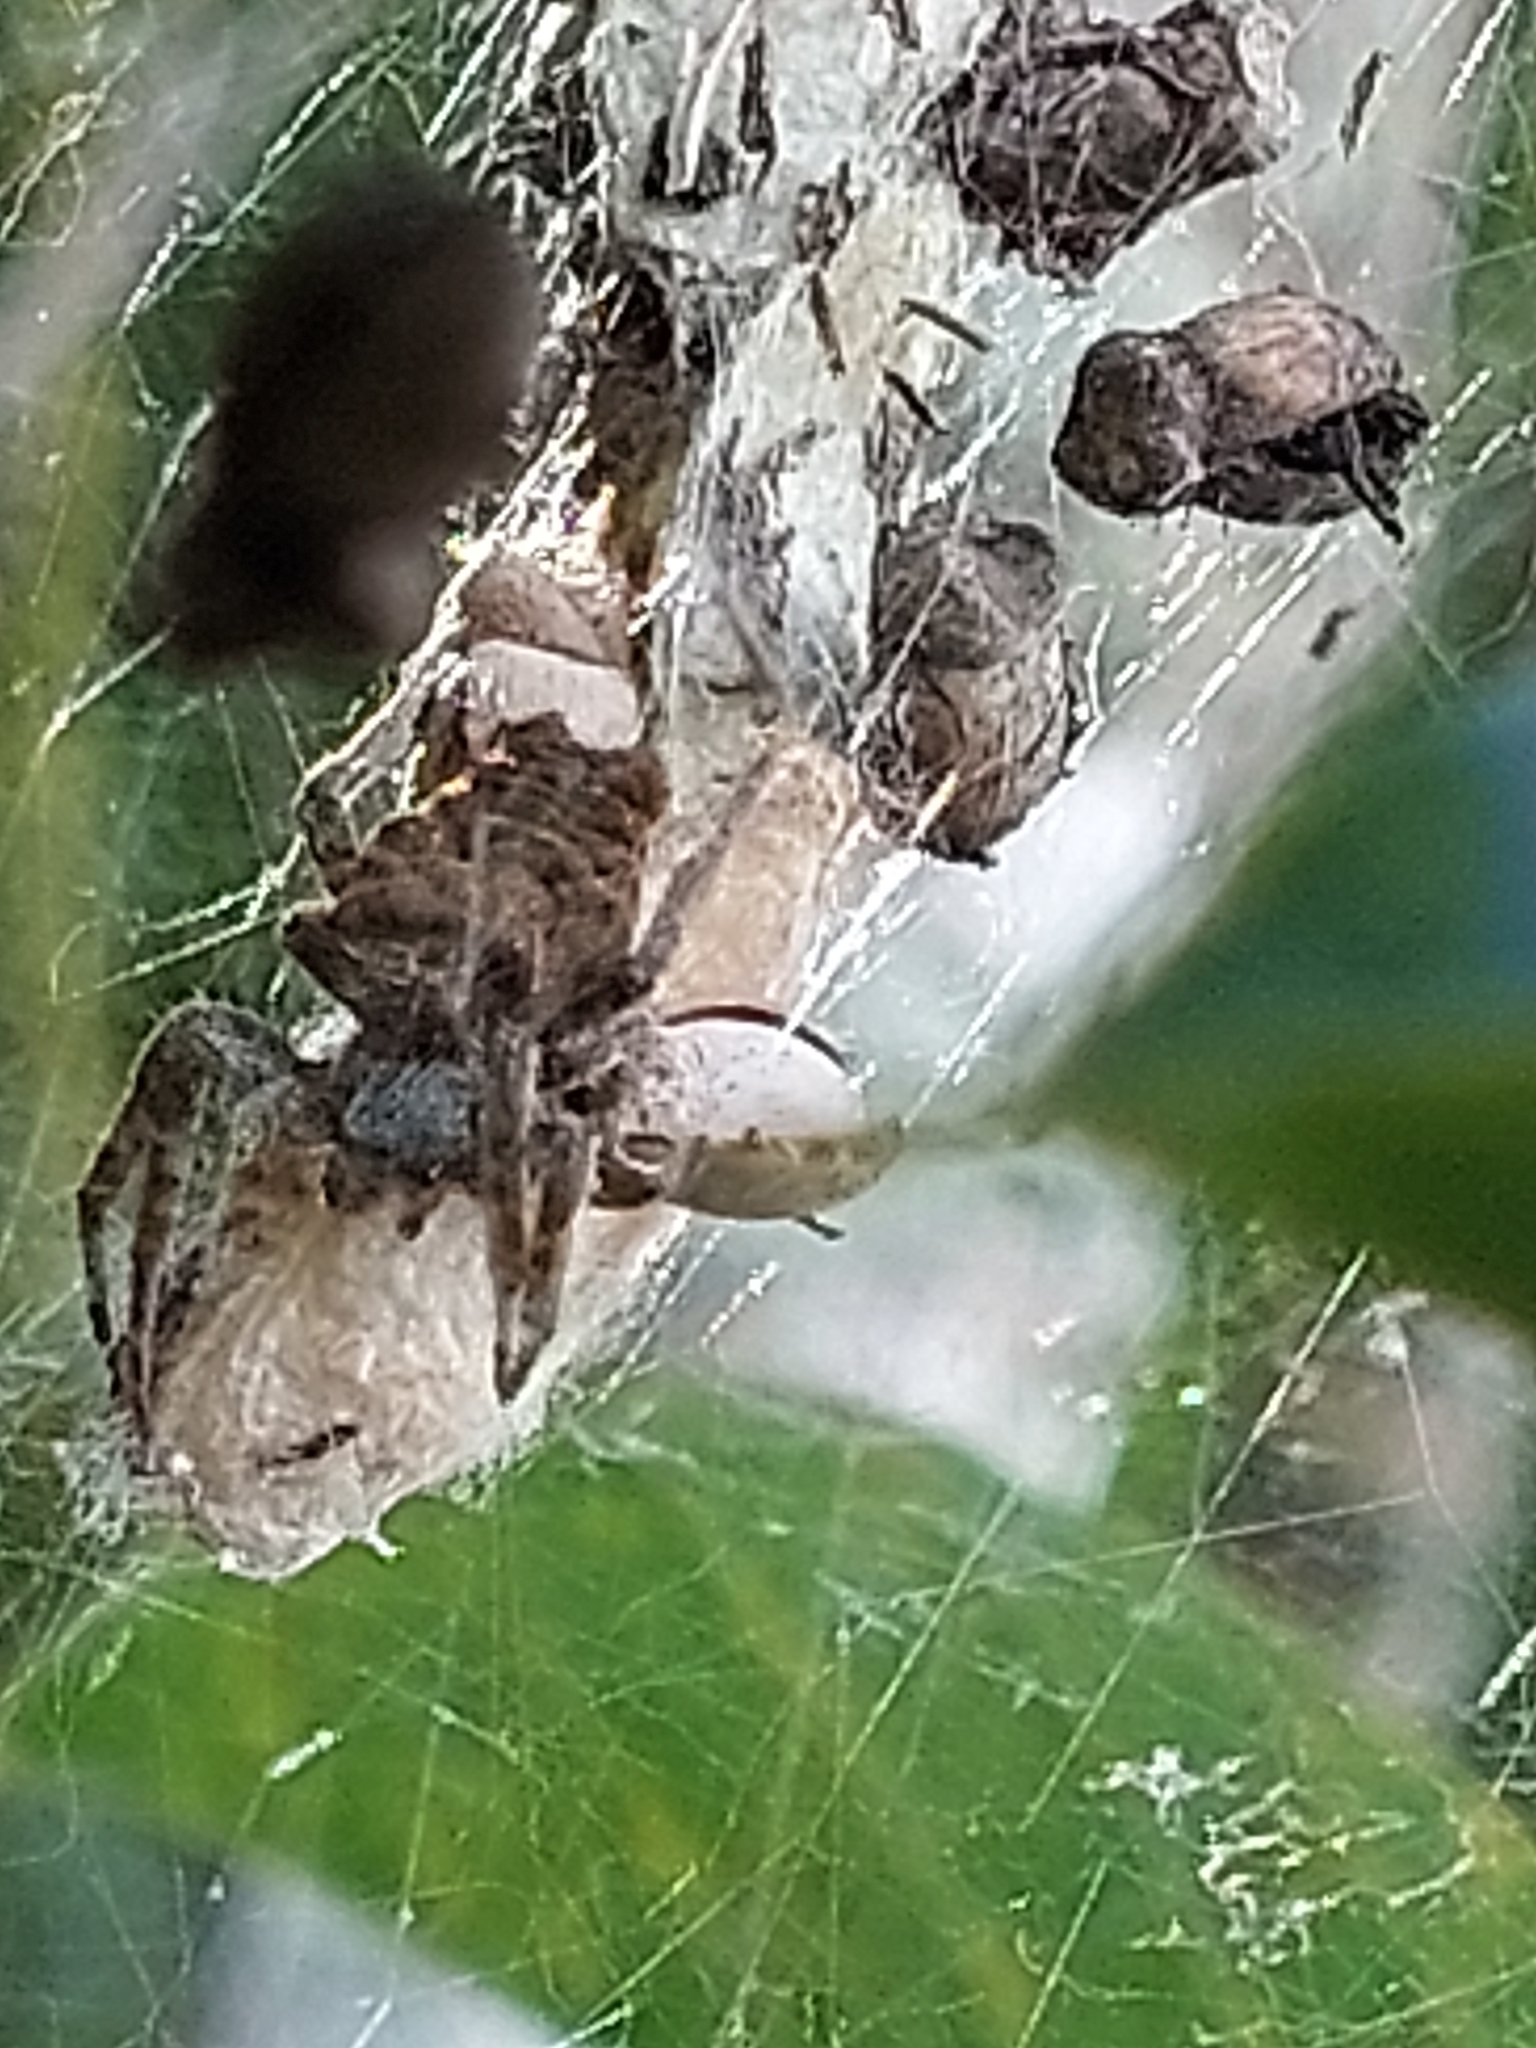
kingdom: Animalia
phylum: Arthropoda
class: Arachnida
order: Araneae
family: Araneidae
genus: Cyrtophora
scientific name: Cyrtophora citricola
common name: Orb weavers
